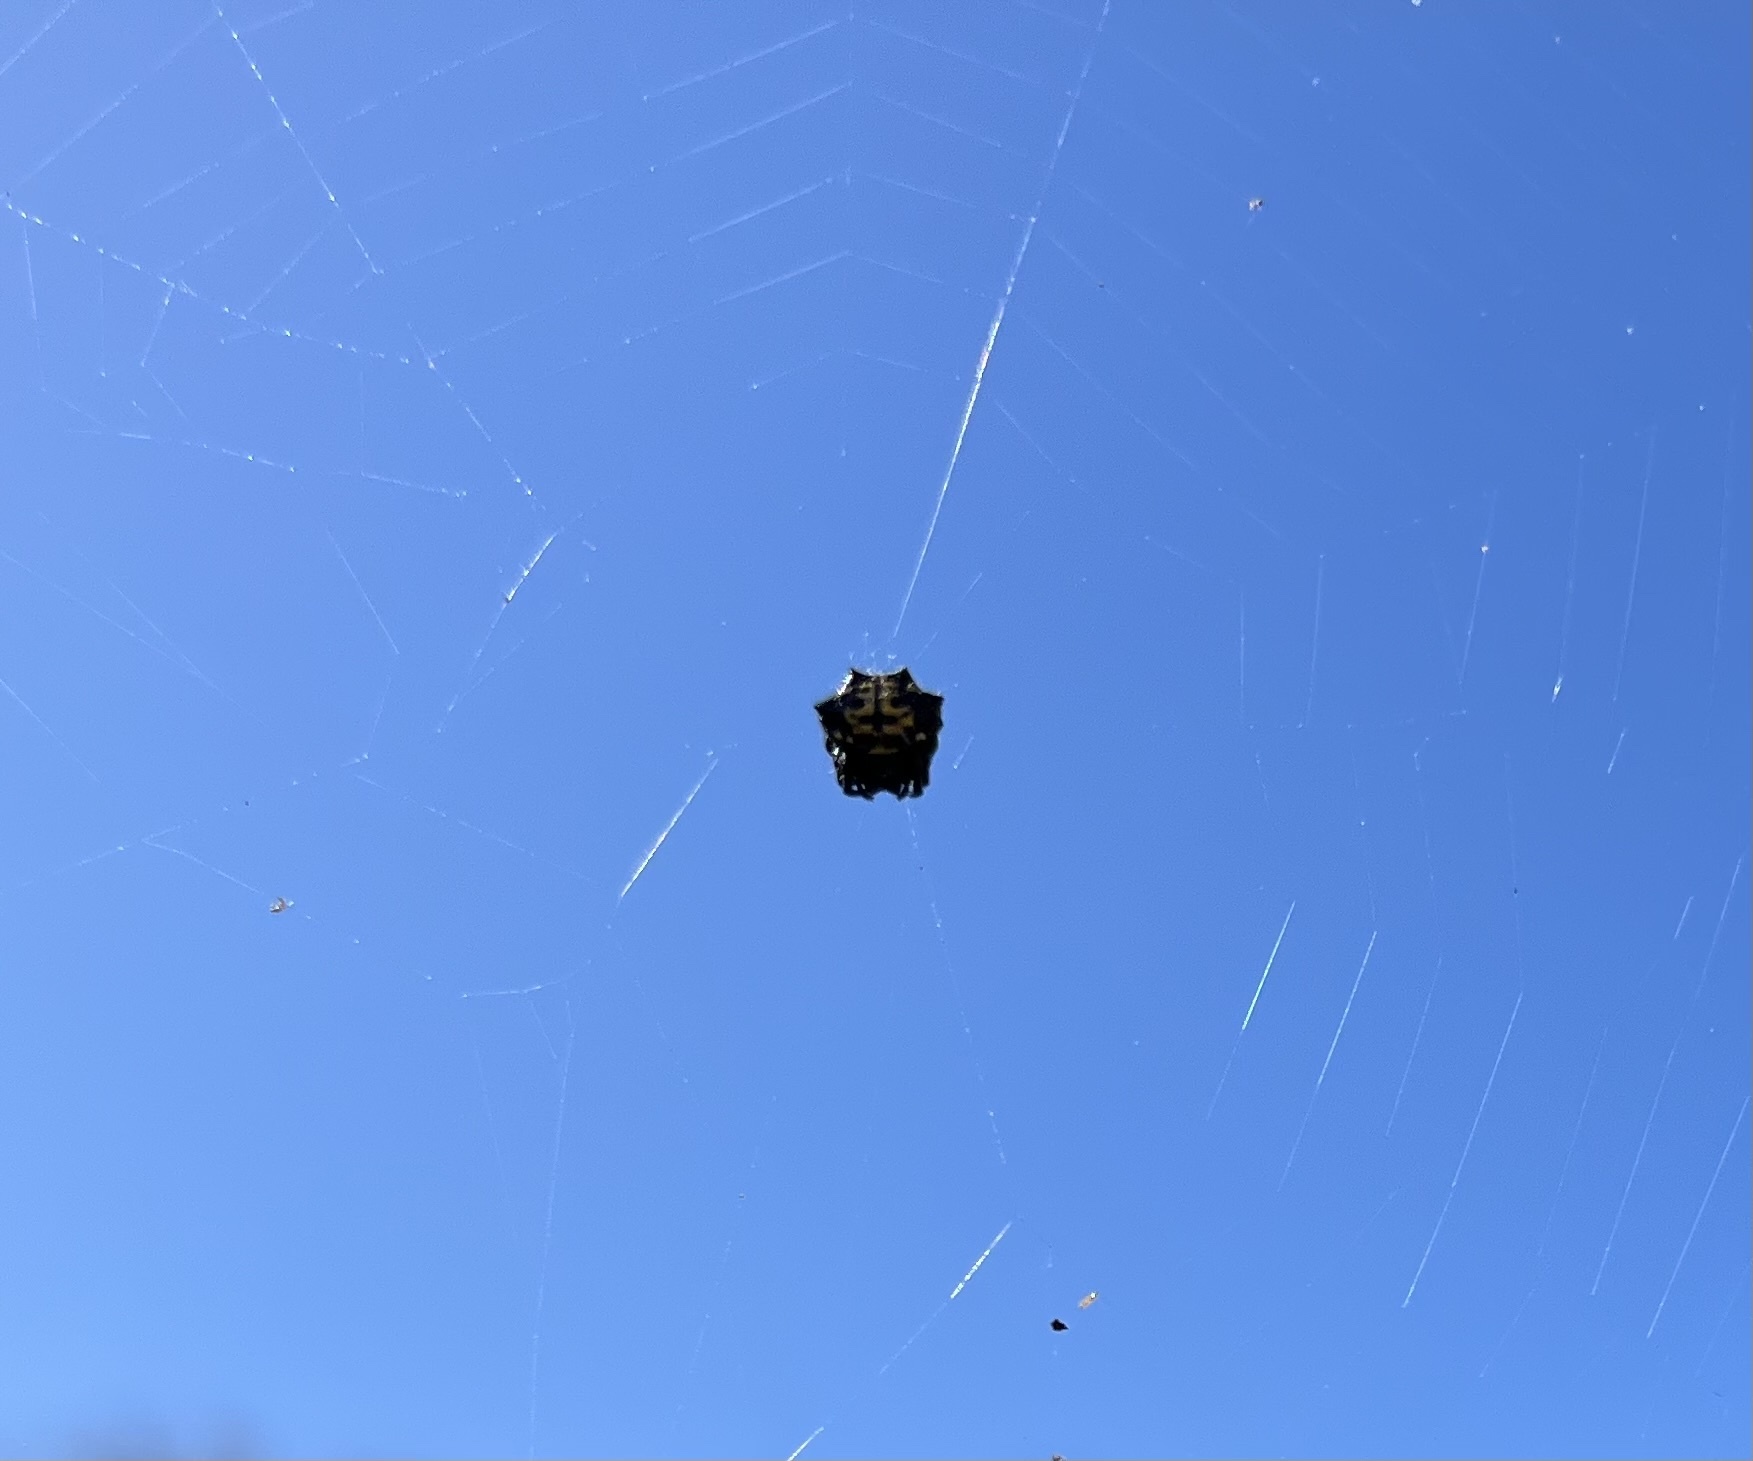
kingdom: Animalia
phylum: Arthropoda
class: Arachnida
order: Araneae
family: Araneidae
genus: Gasteracantha
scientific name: Gasteracantha cancriformis
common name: Orb weavers
